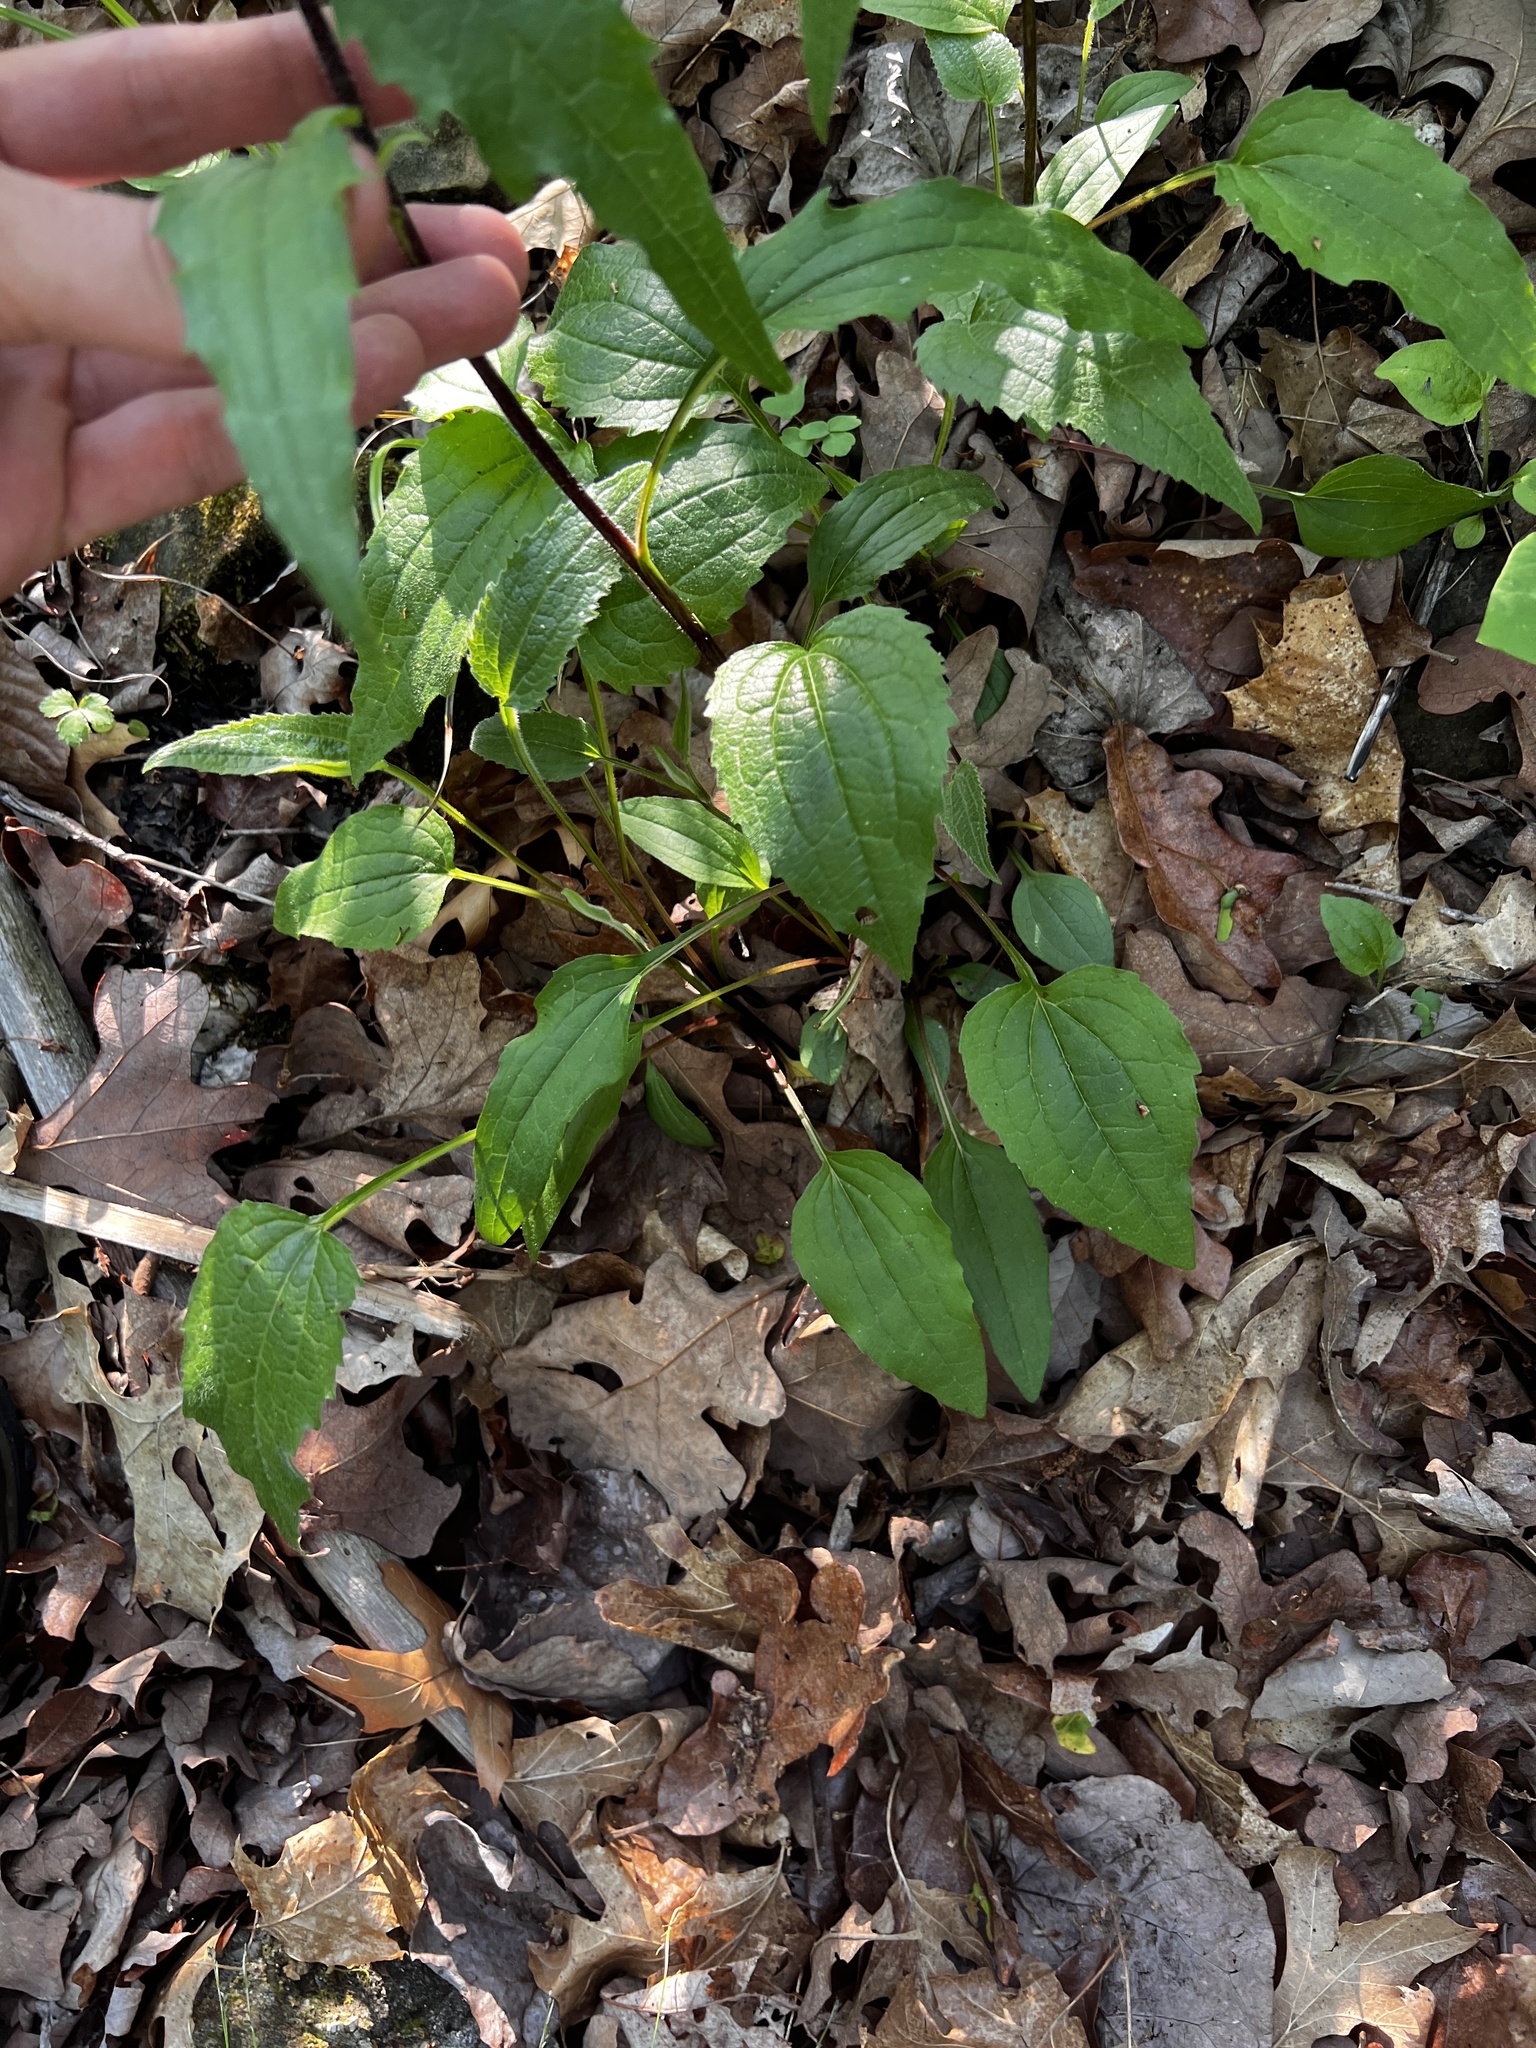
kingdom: Plantae
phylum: Tracheophyta
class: Magnoliopsida
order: Asterales
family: Asteraceae
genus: Echinacea
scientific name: Echinacea purpurea
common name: Broad-leaved purple coneflower
